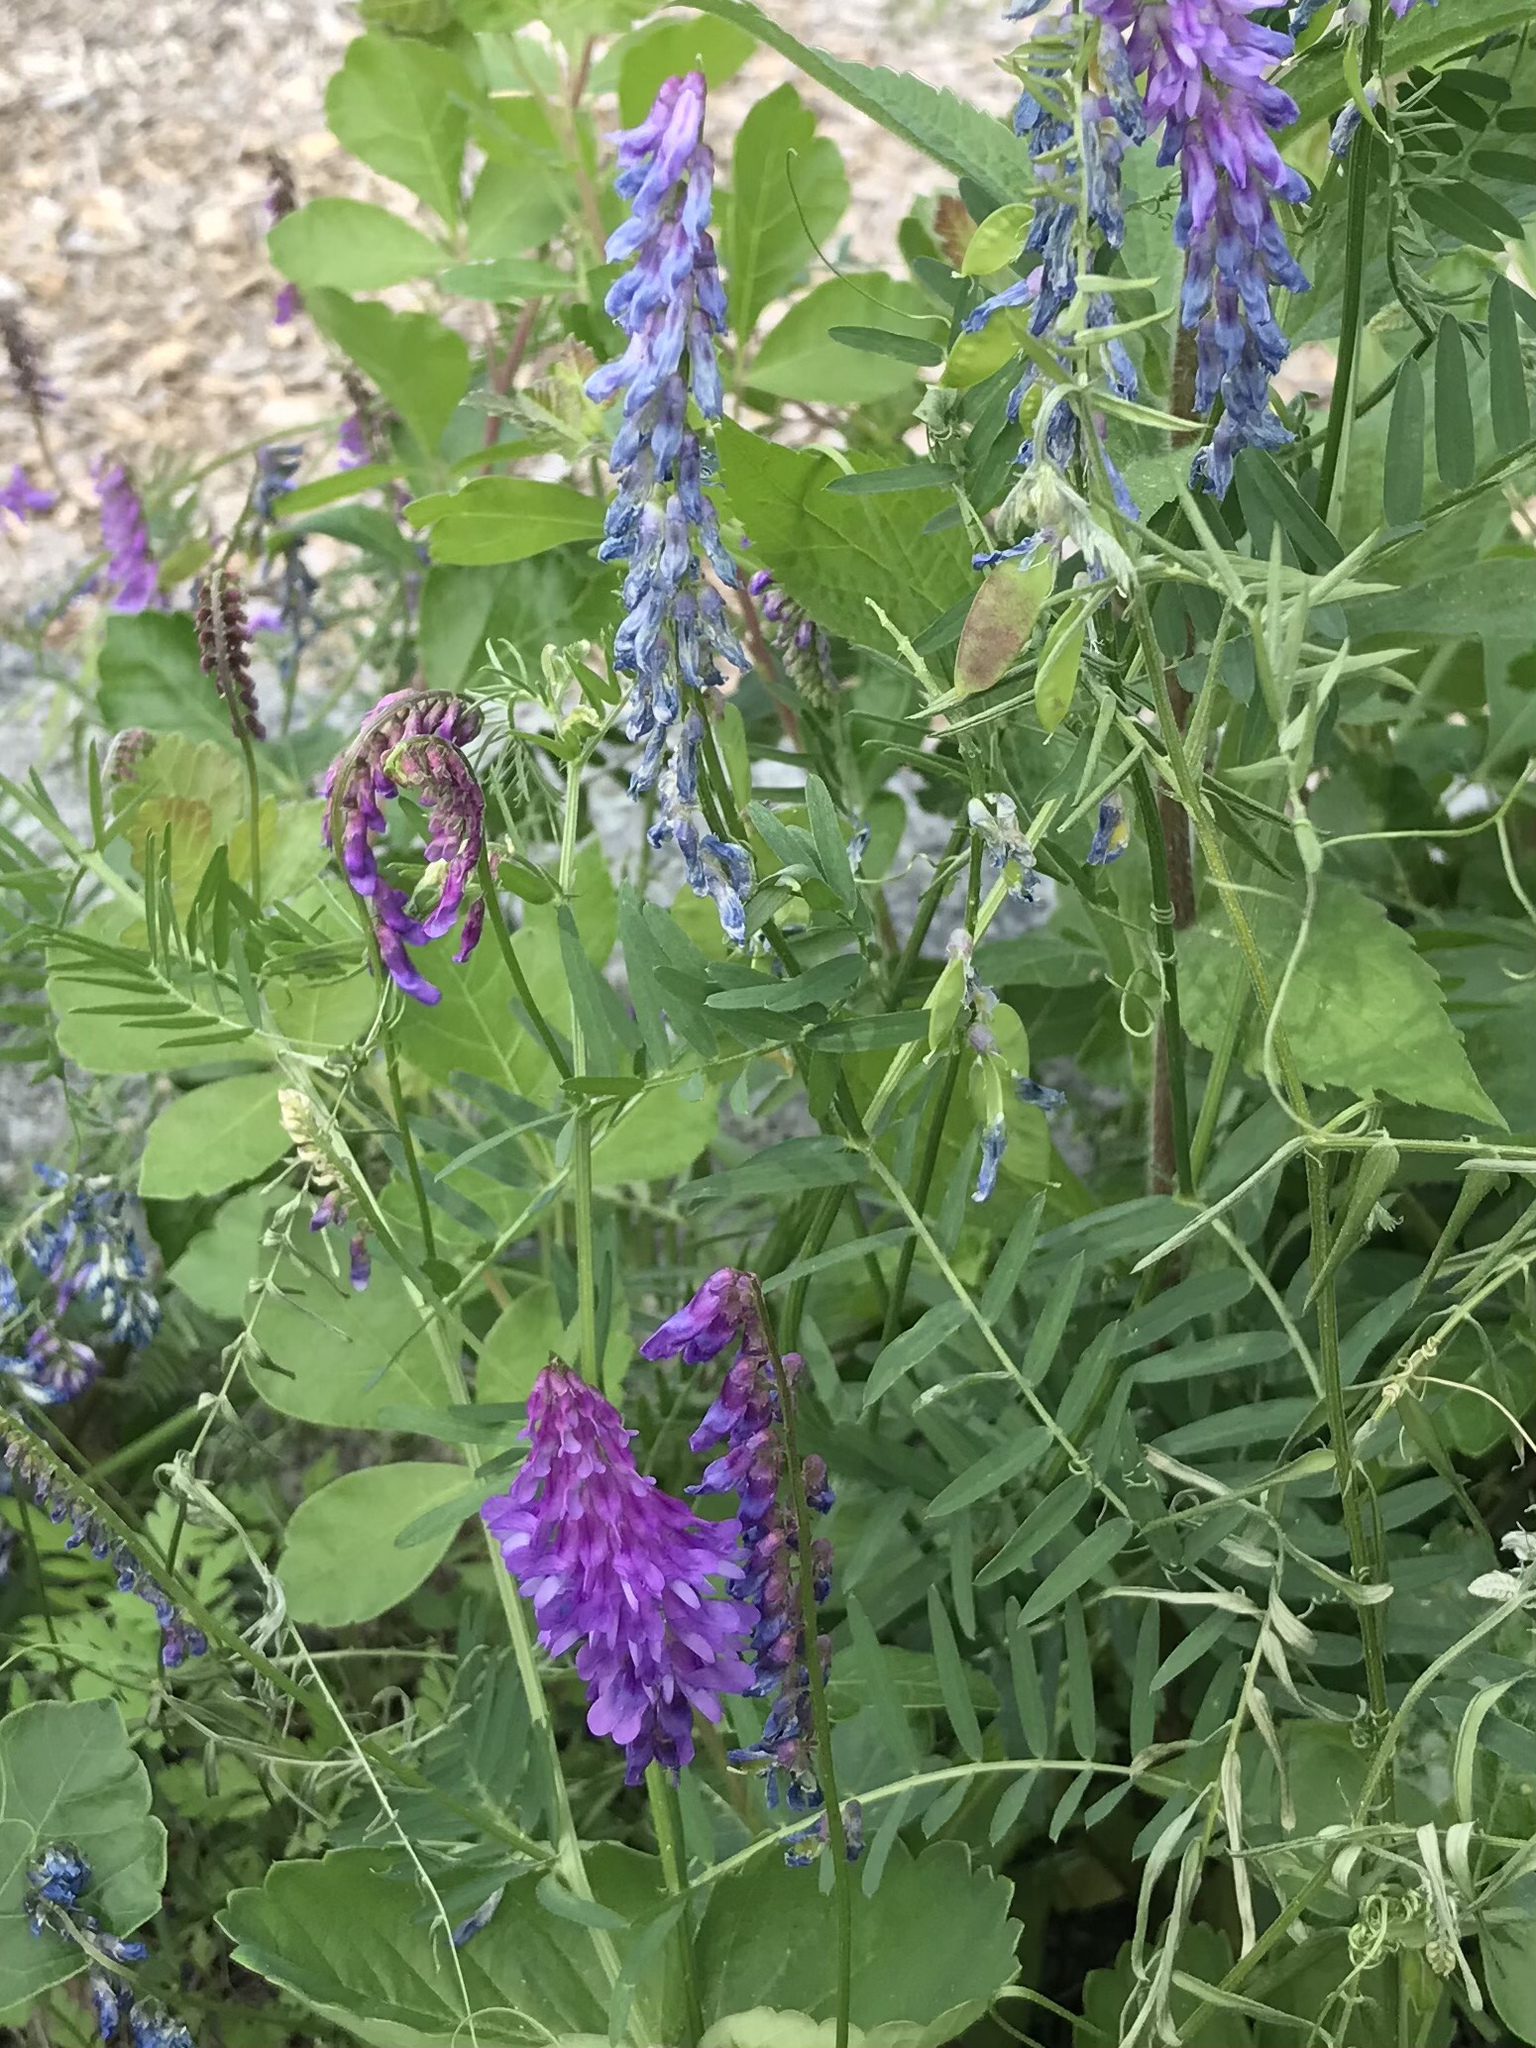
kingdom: Plantae
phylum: Tracheophyta
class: Magnoliopsida
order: Fabales
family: Fabaceae
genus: Vicia
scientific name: Vicia cracca
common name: Bird vetch
